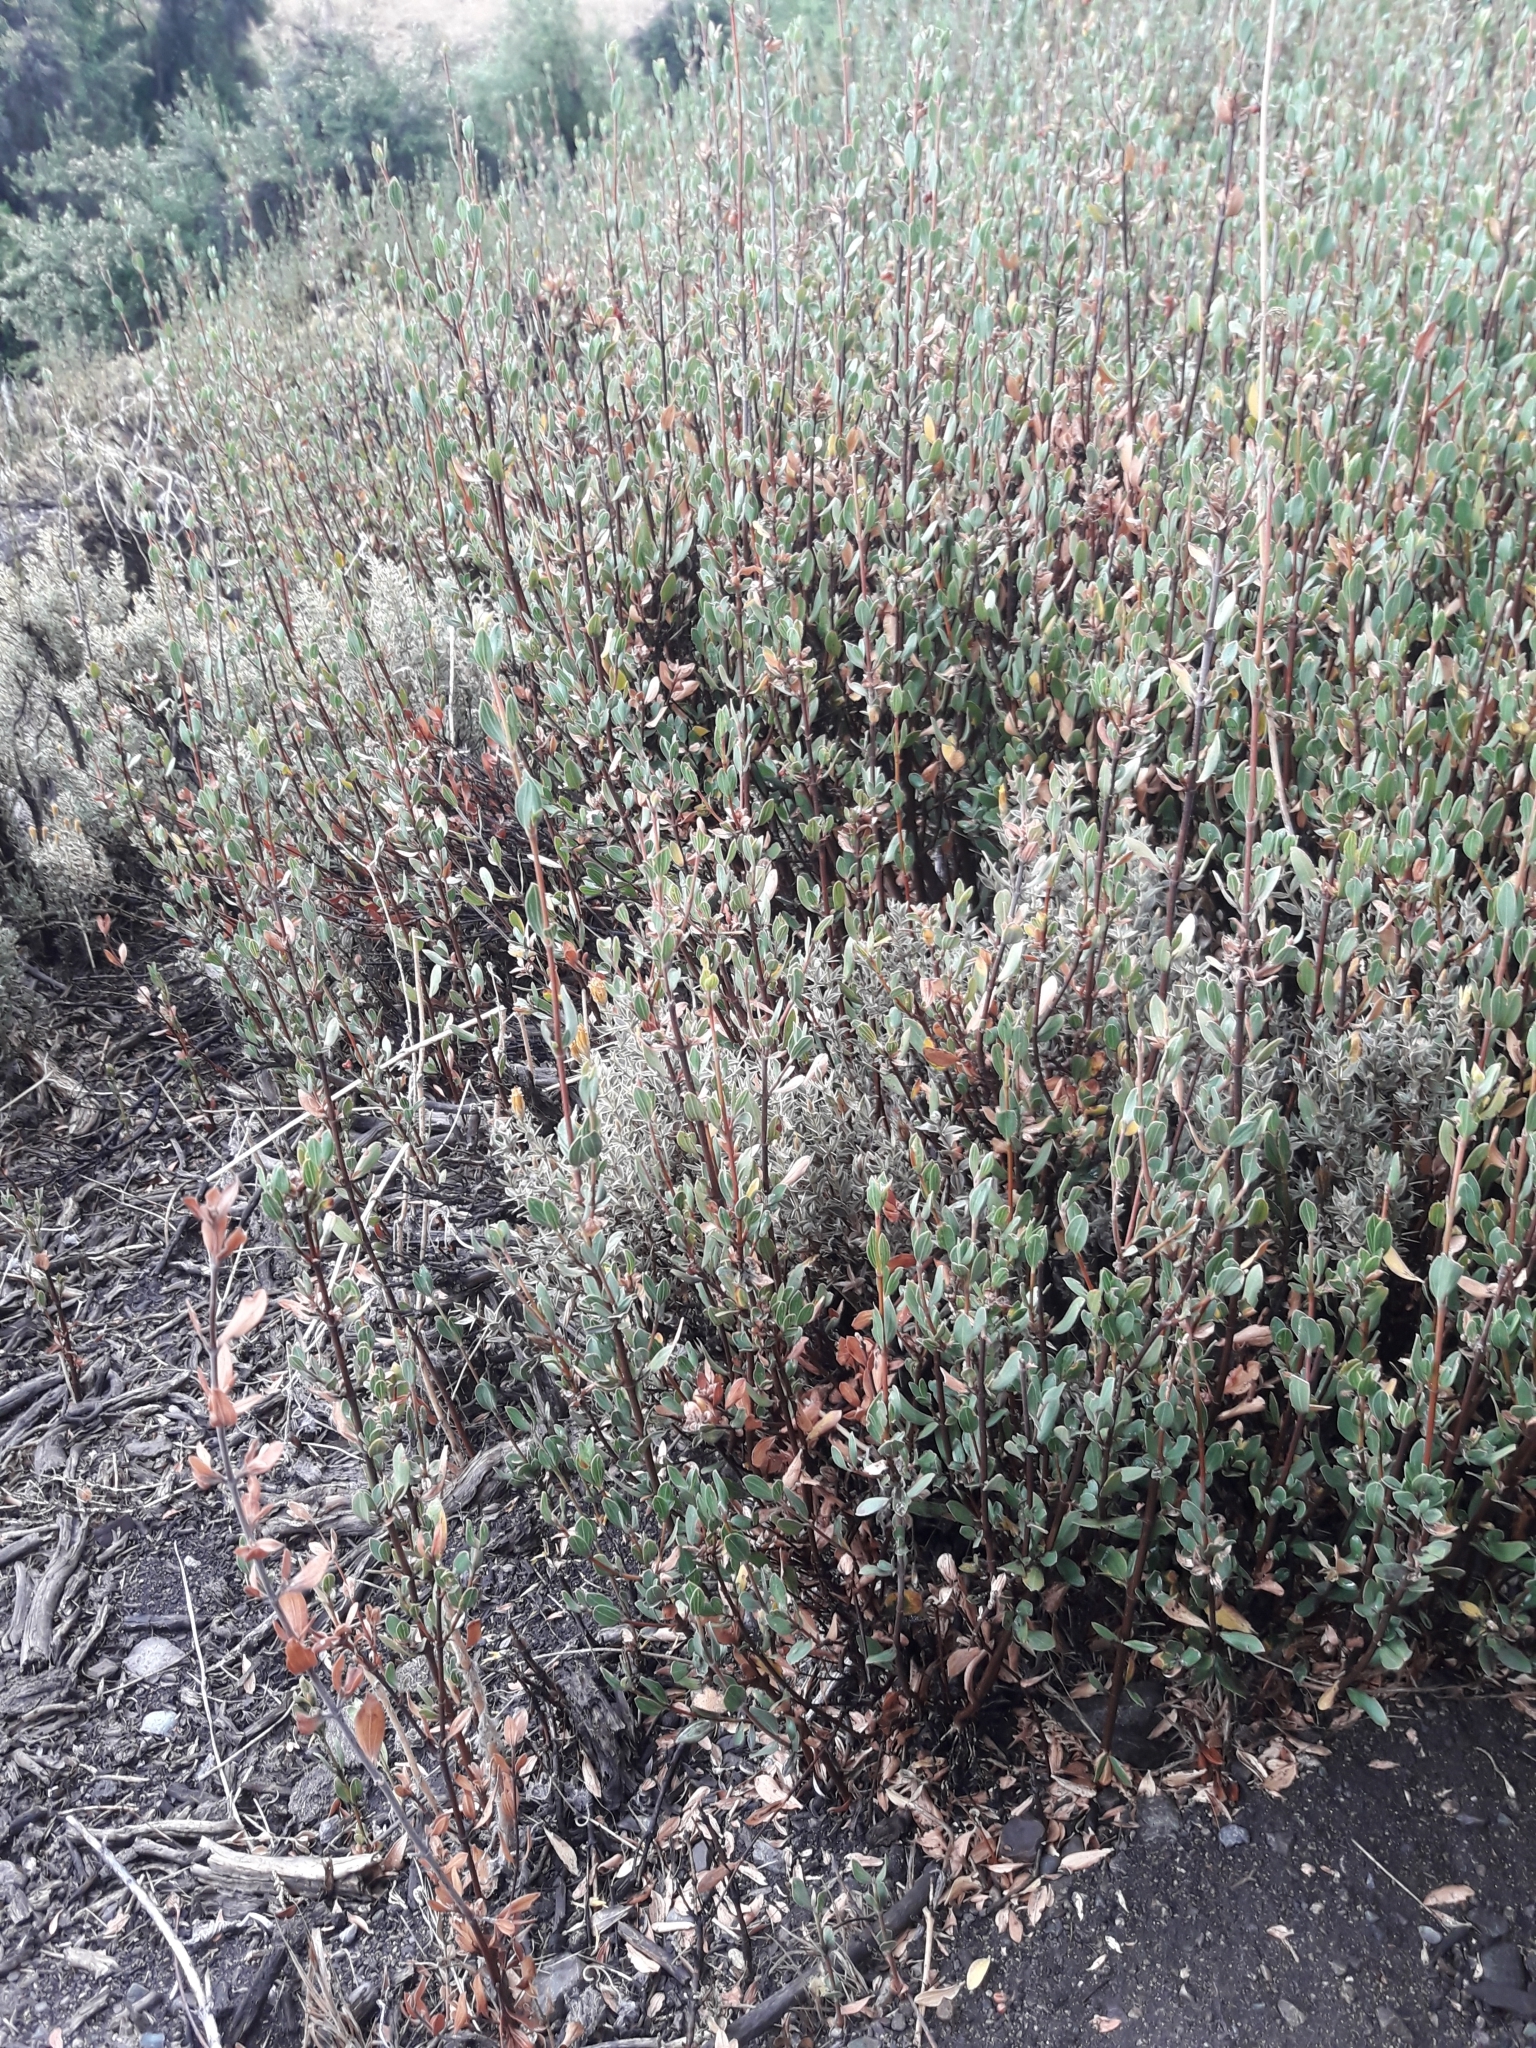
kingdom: Plantae
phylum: Tracheophyta
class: Magnoliopsida
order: Sapindales
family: Sapindaceae
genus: Guindilia
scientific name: Guindilia trinervis
